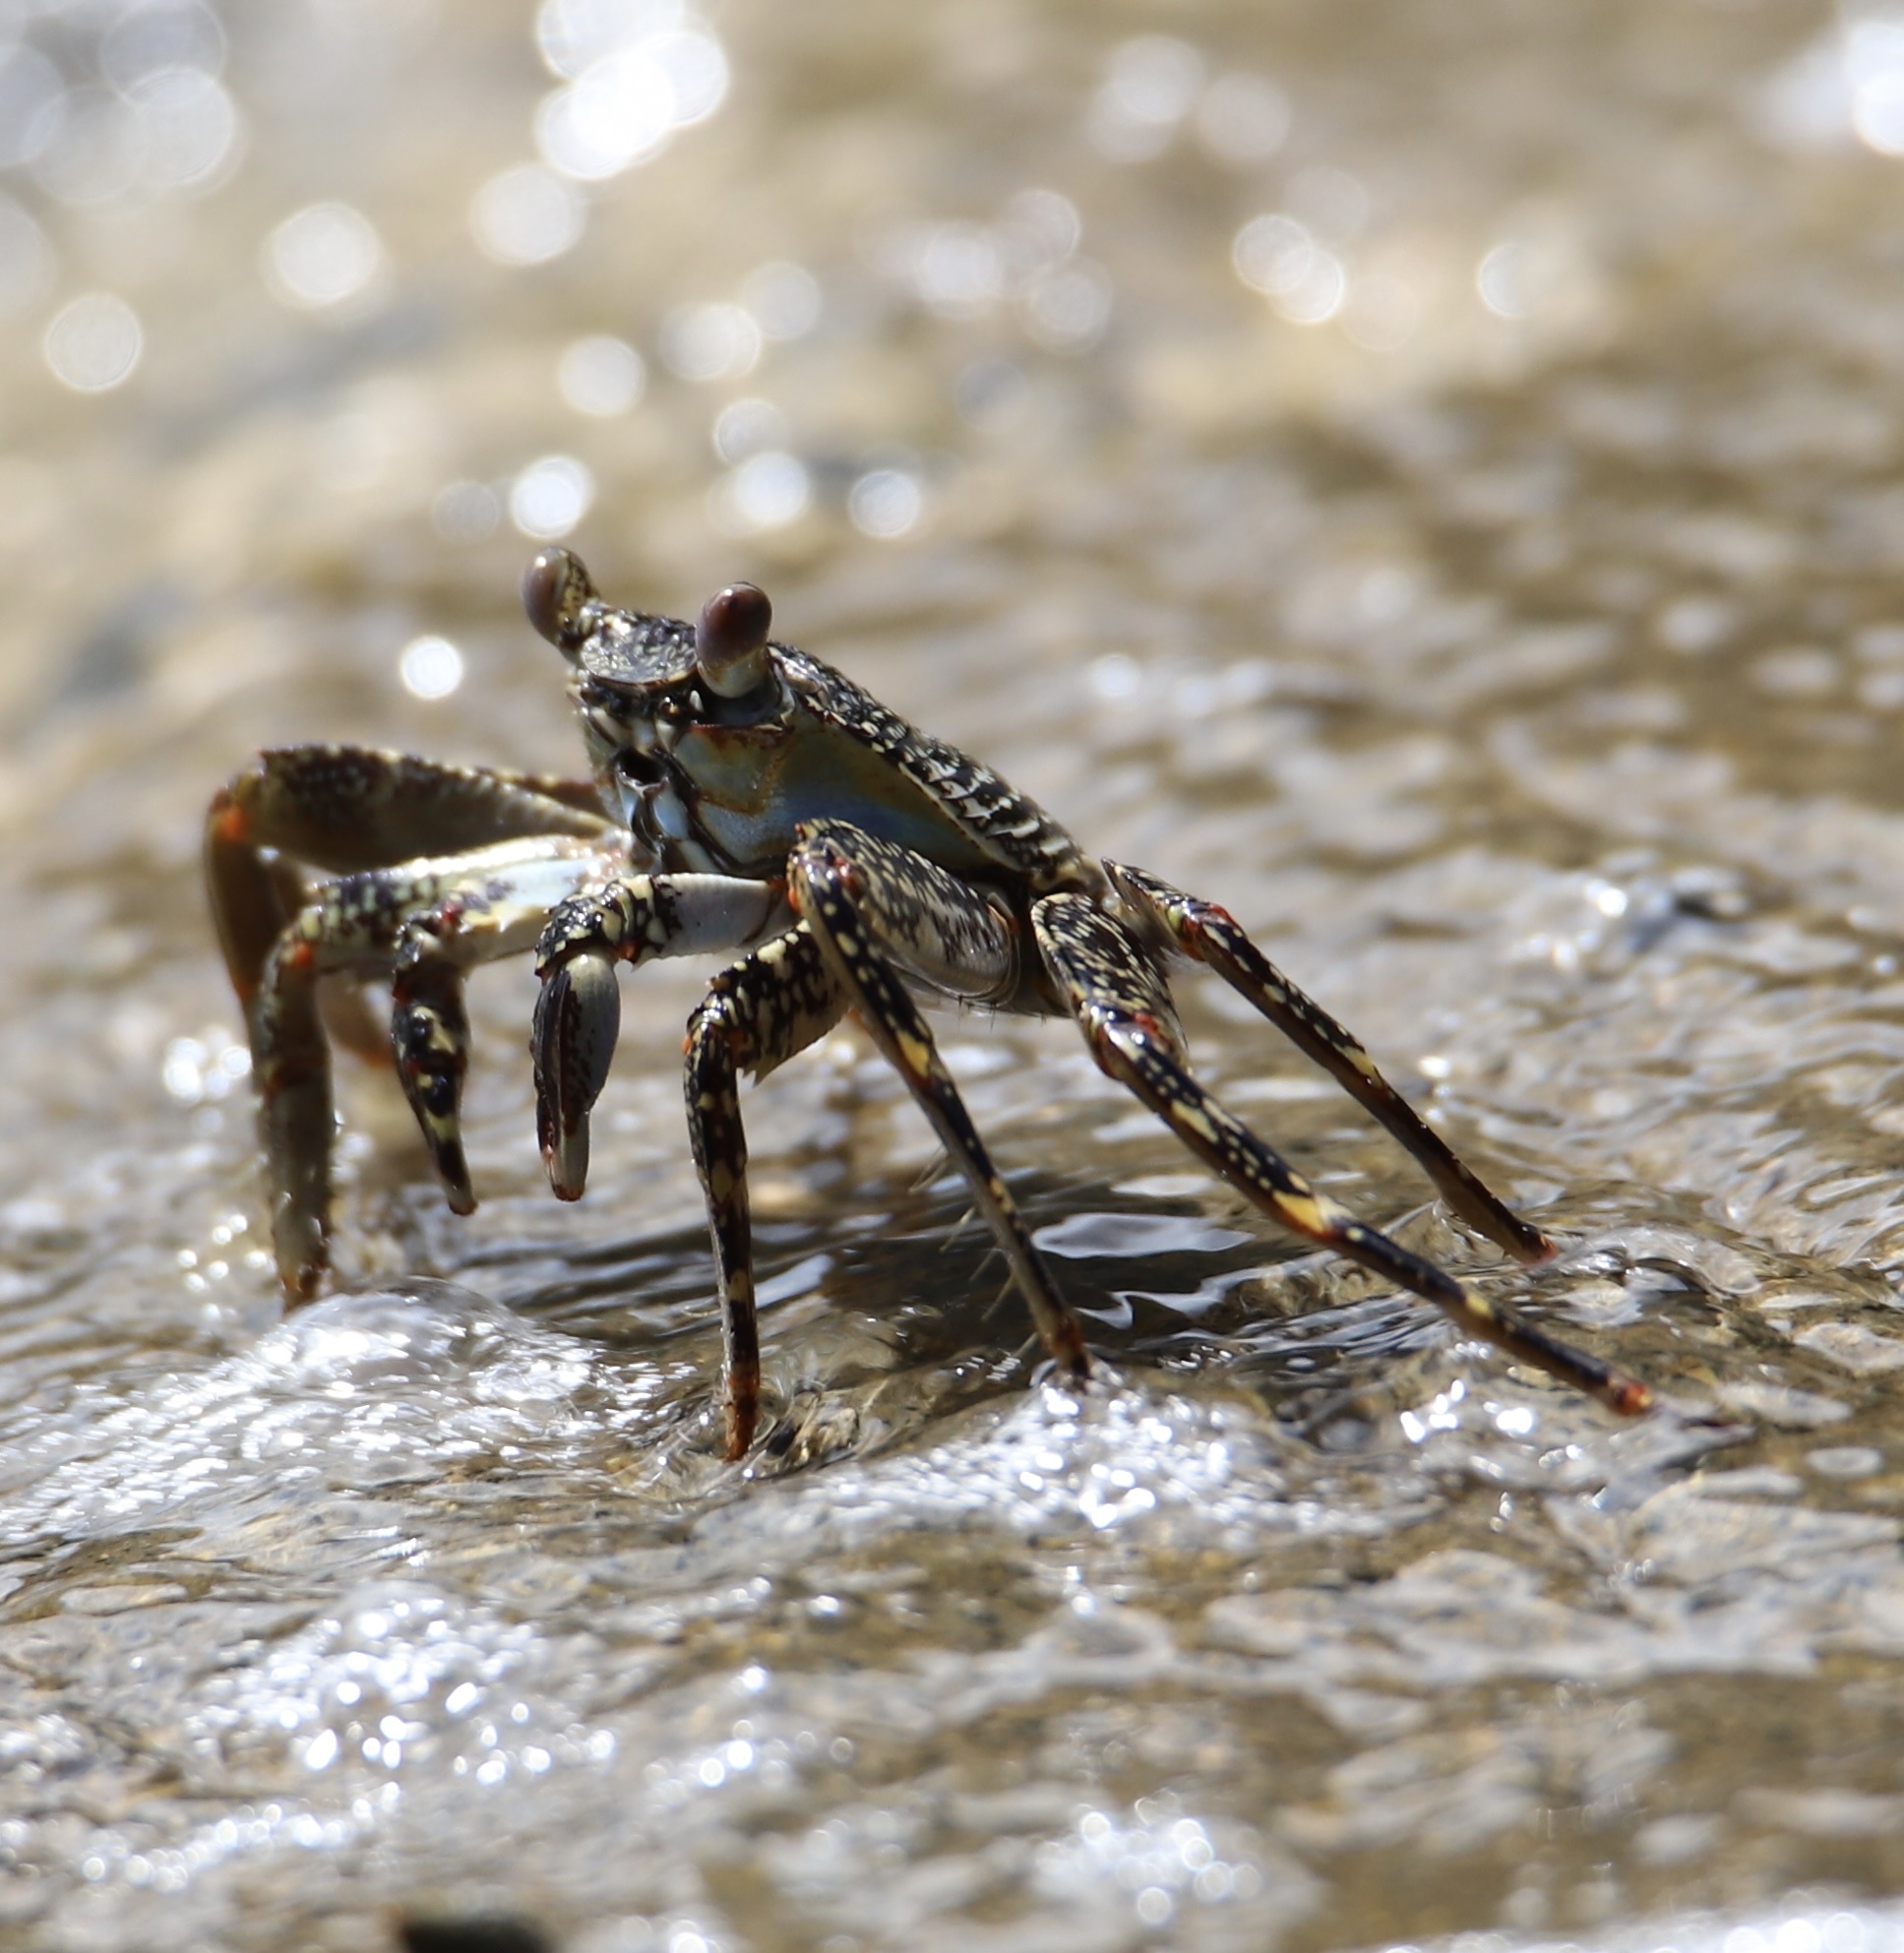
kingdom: Animalia
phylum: Arthropoda
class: Malacostraca
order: Decapoda
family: Grapsidae
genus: Grapsus
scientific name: Grapsus grapsus
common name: Sally lightfoot
